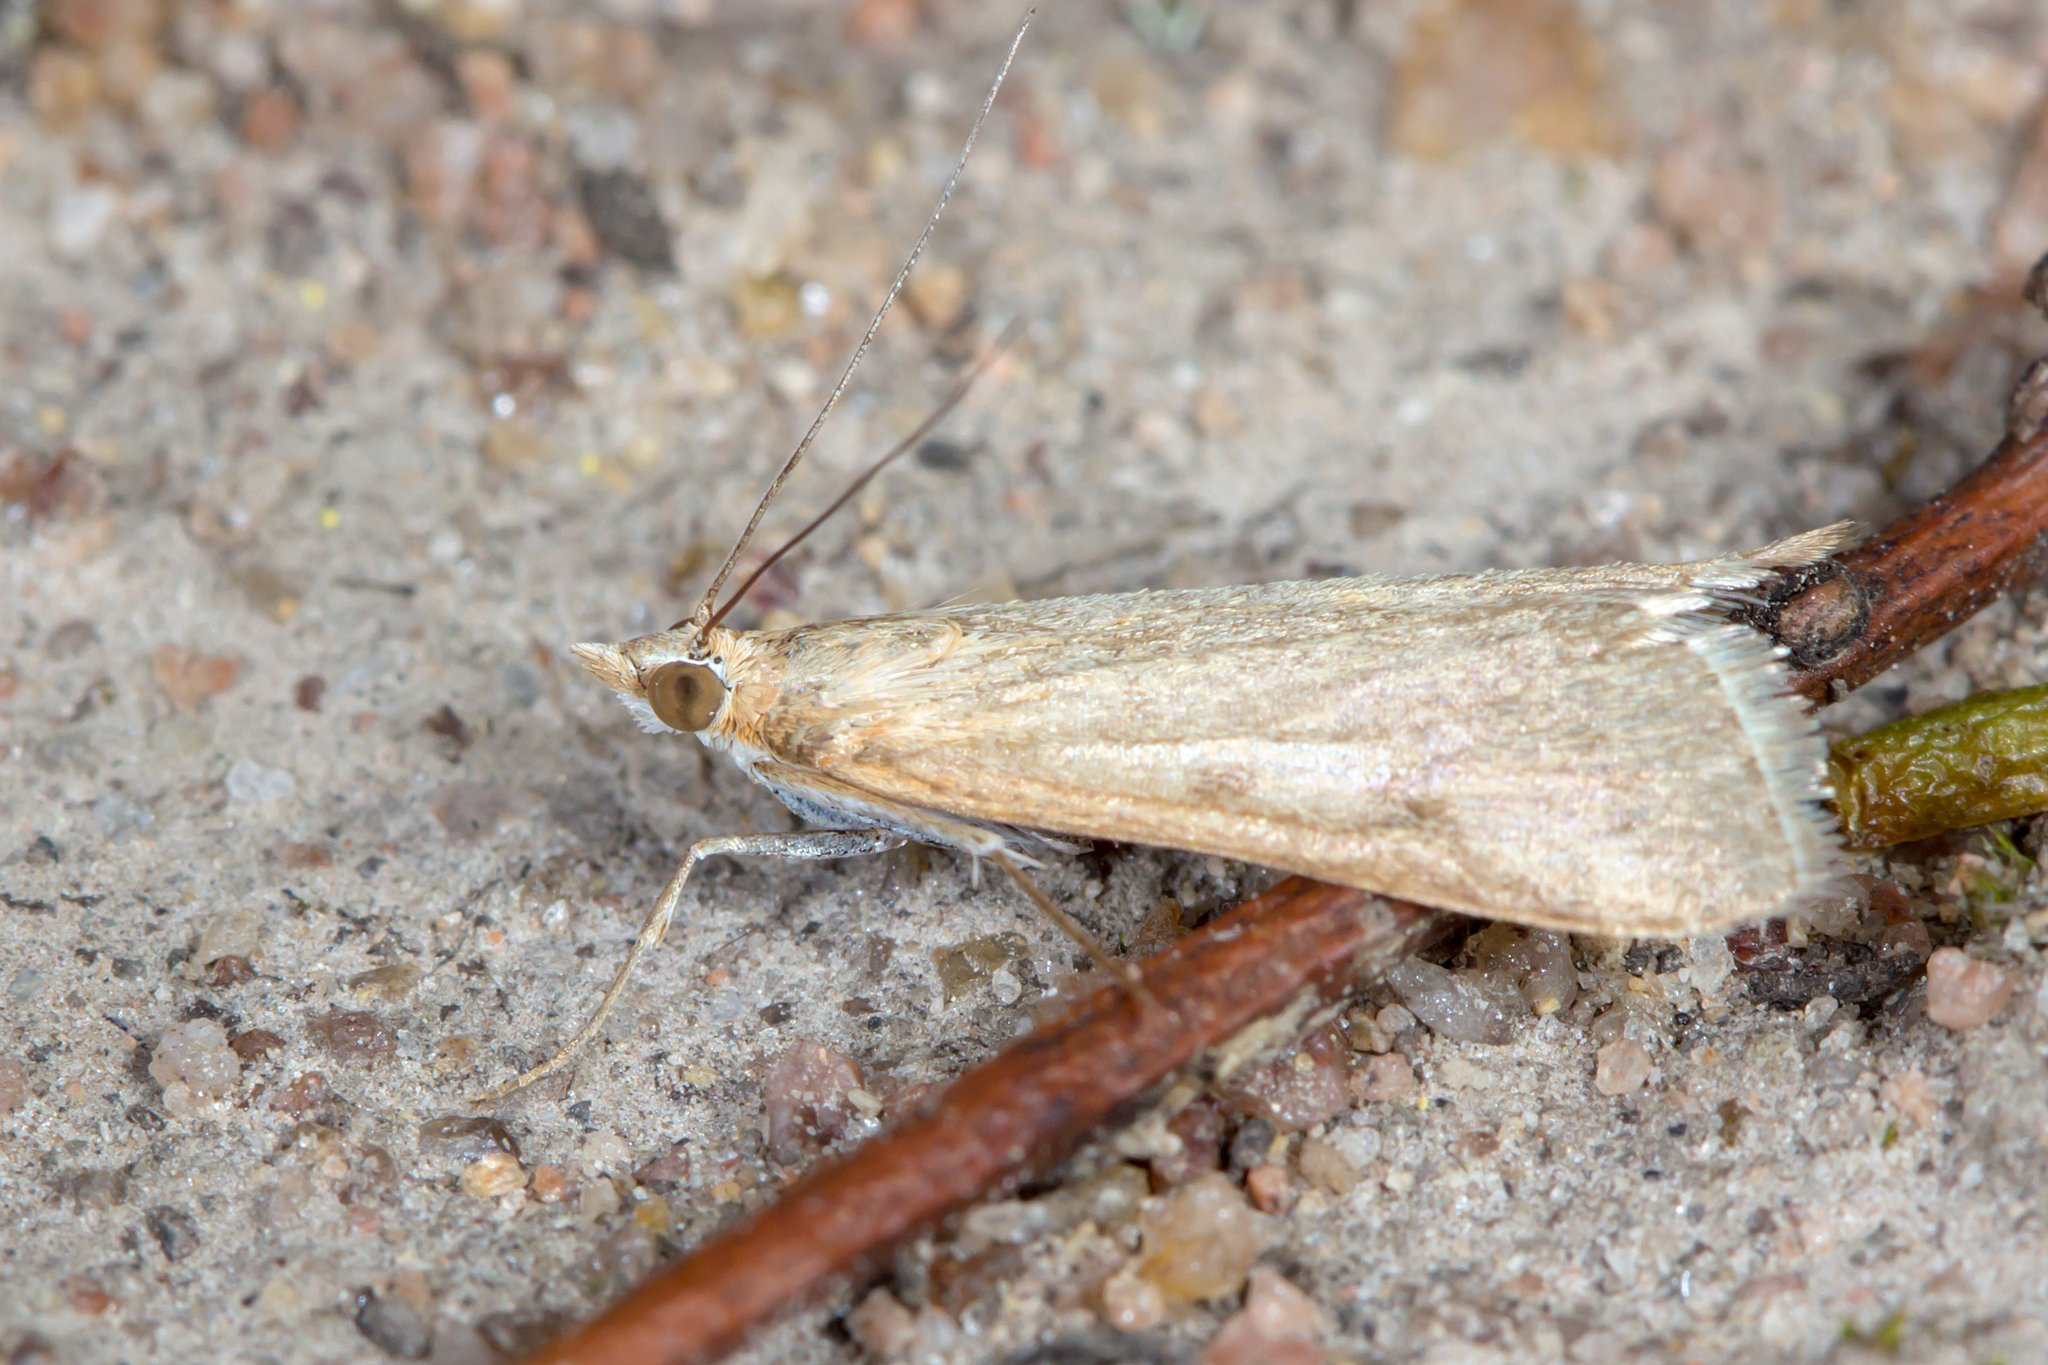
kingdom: Animalia
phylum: Arthropoda
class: Insecta
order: Lepidoptera
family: Crambidae
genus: Achyra
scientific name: Achyra affinitalis
